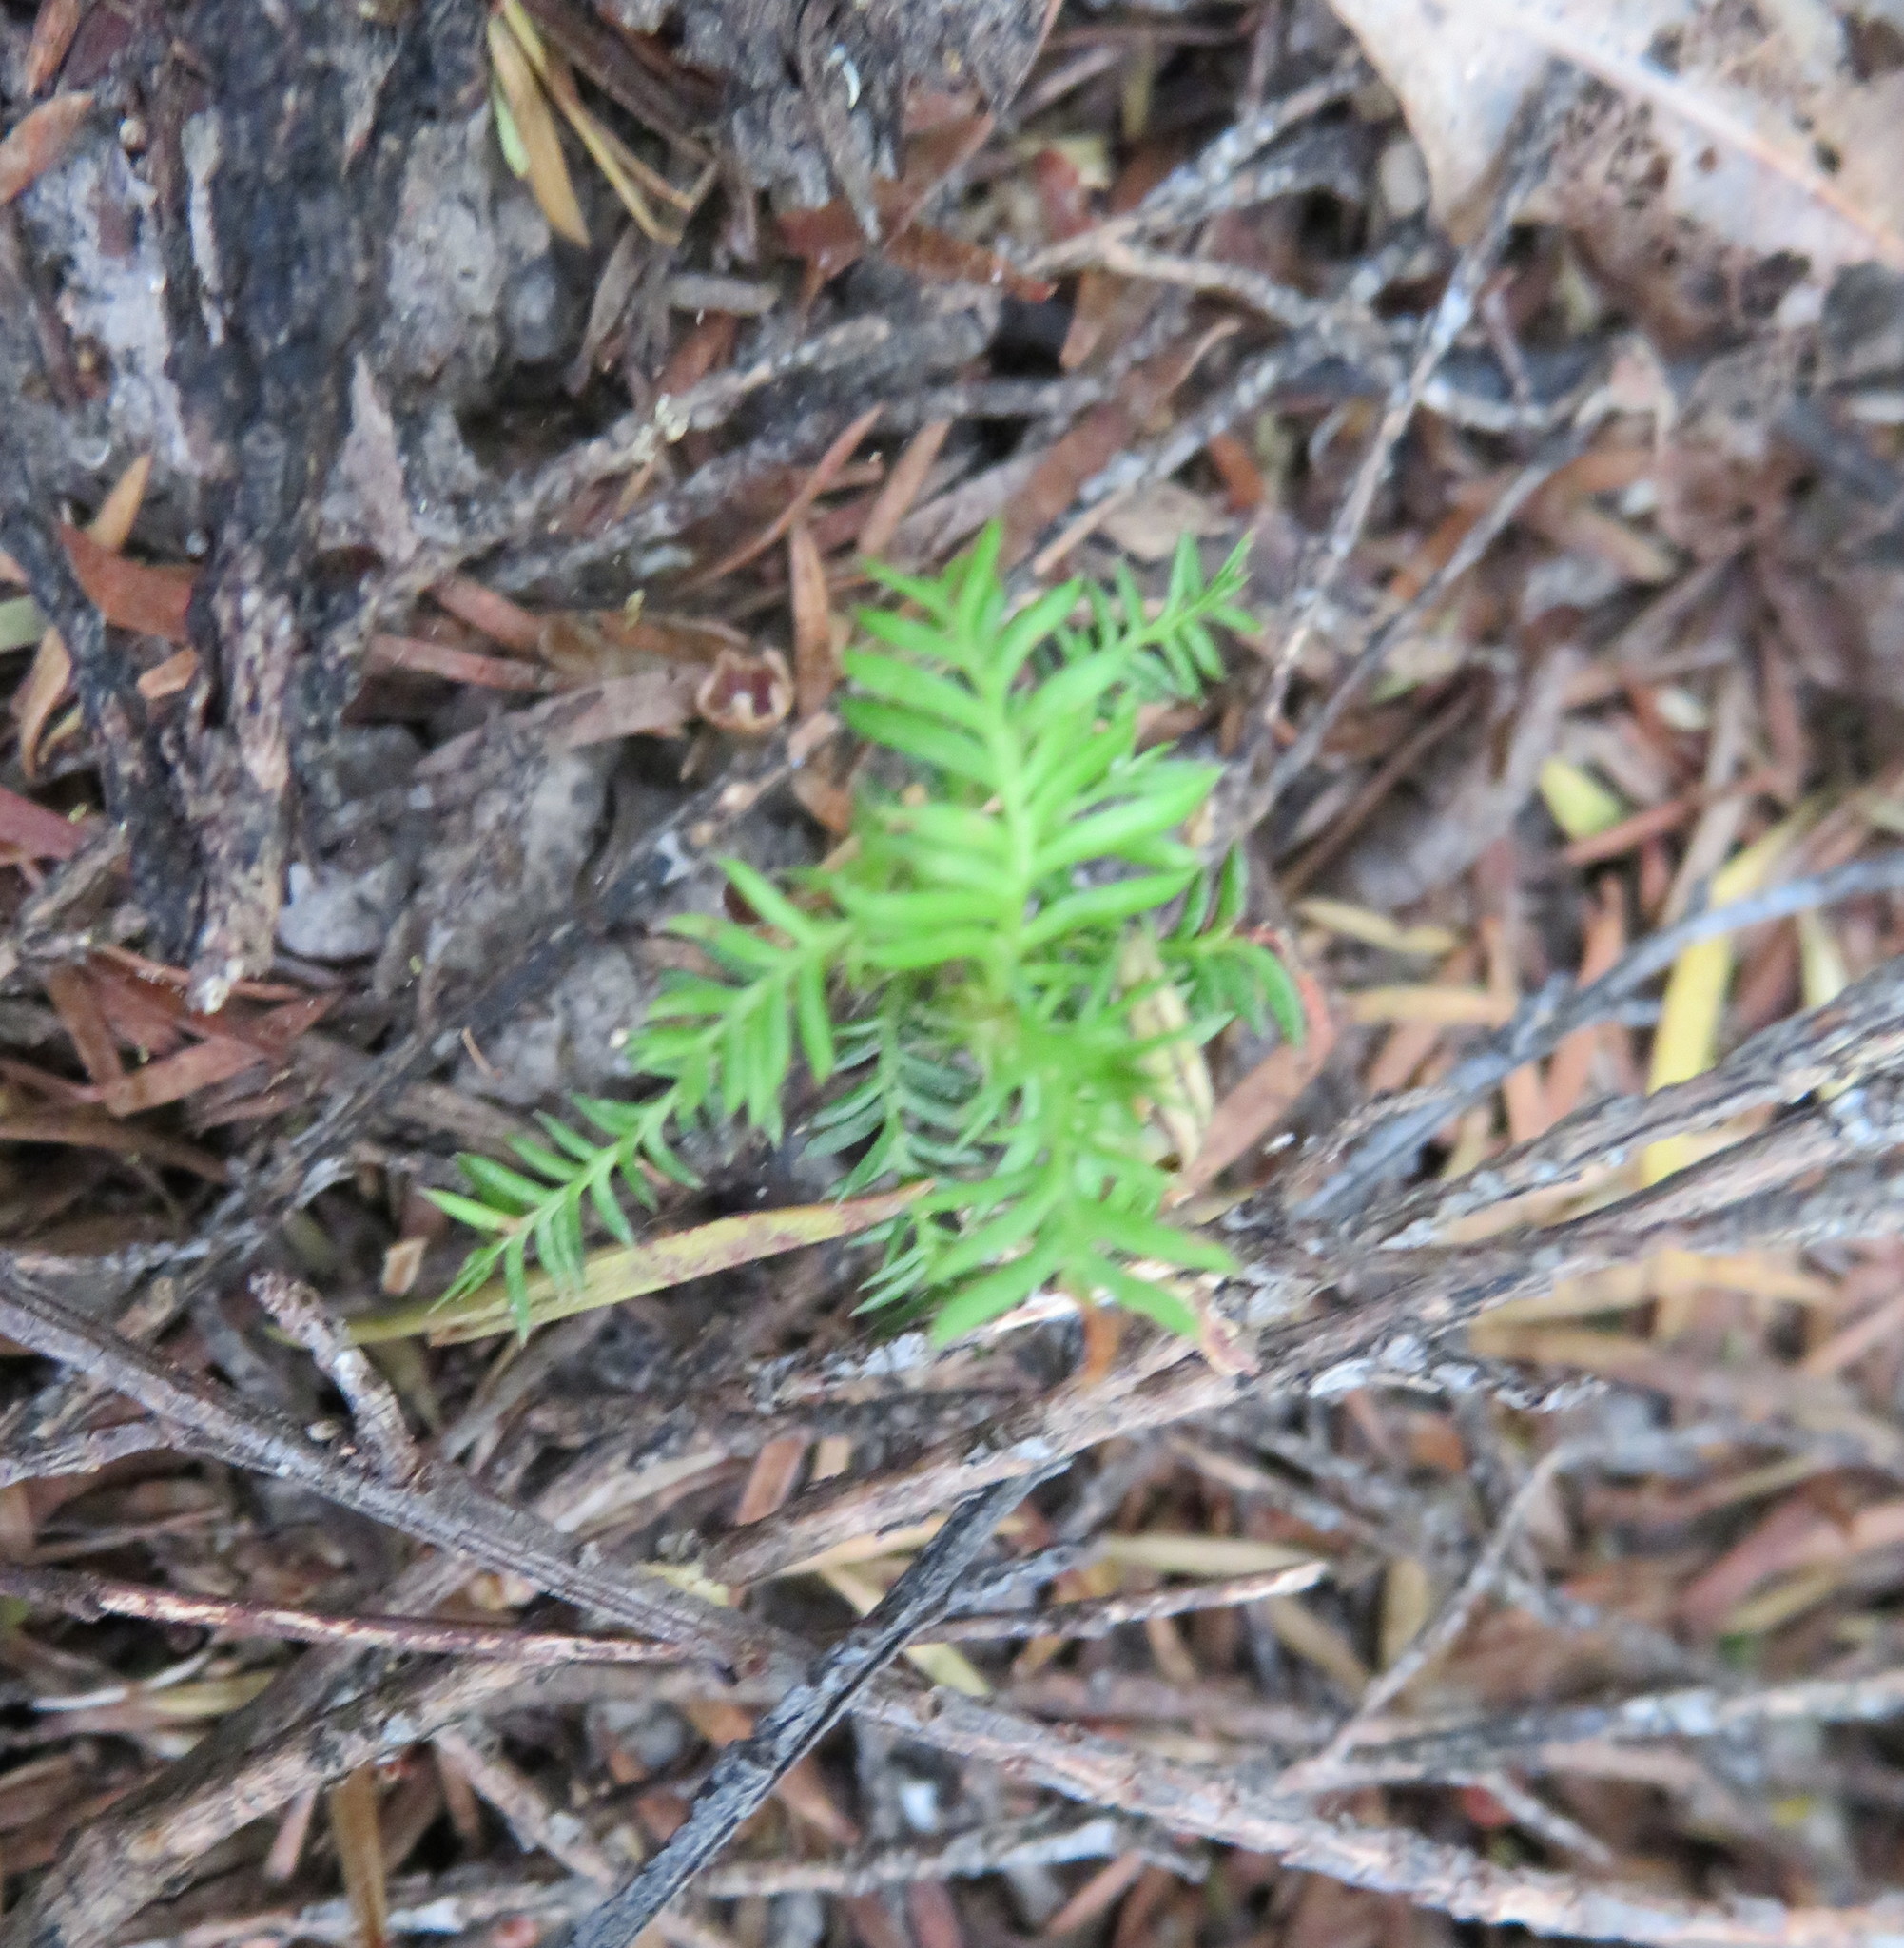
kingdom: Plantae
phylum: Tracheophyta
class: Pinopsida
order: Pinales
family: Podocarpaceae
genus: Dacrycarpus
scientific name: Dacrycarpus dacrydioides
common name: White pine
